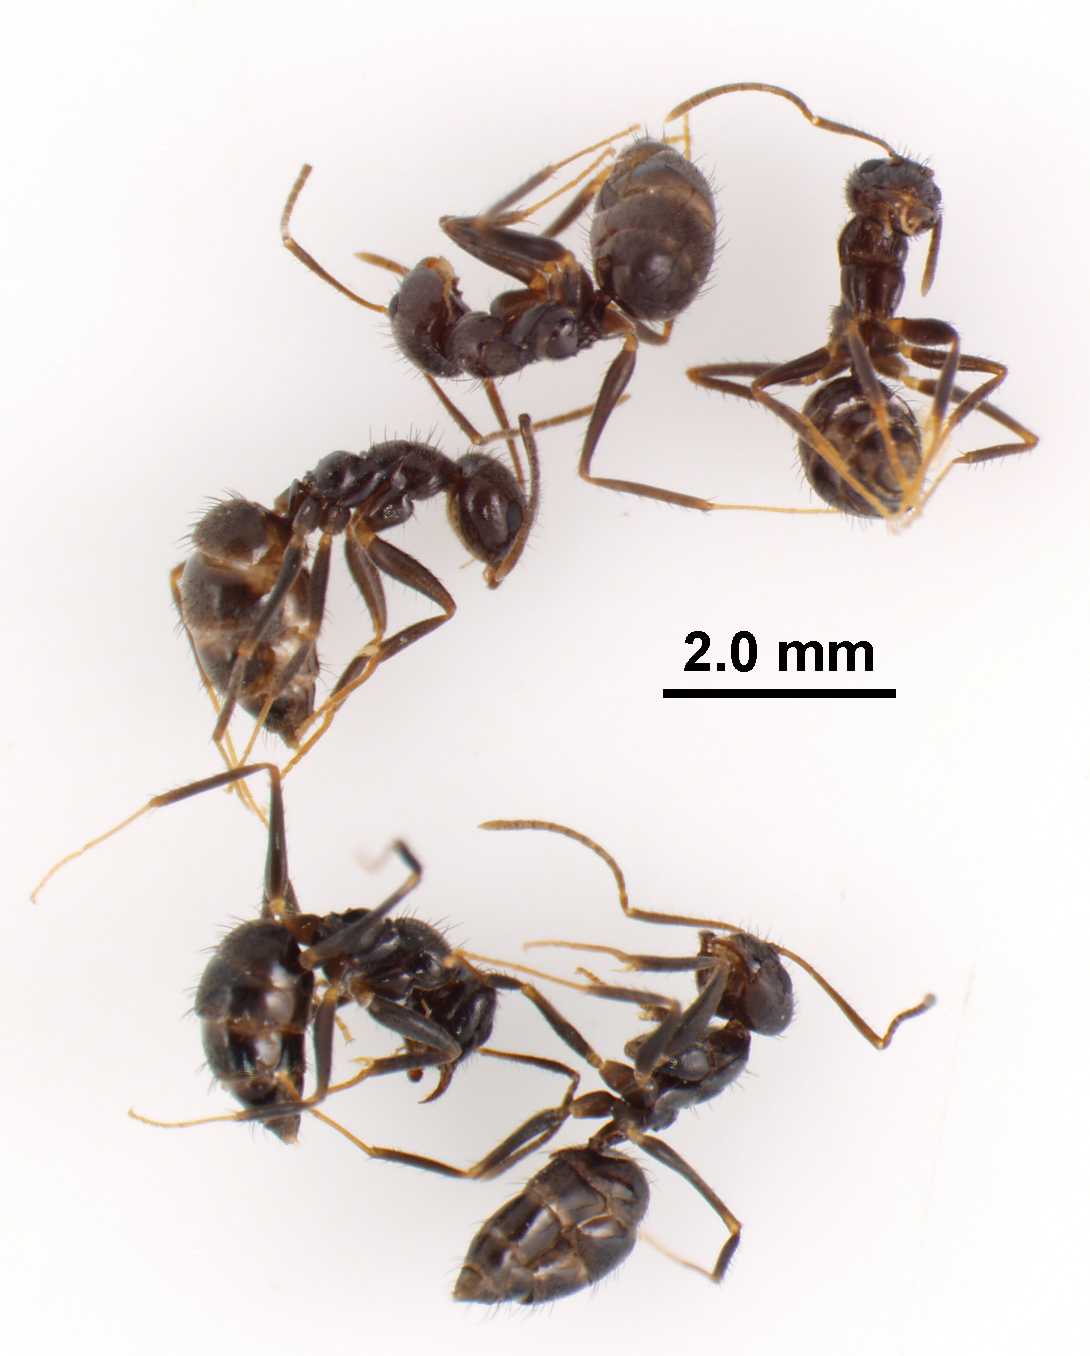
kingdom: Animalia
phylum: Arthropoda
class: Insecta
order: Hymenoptera
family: Formicidae
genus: Paratrechina
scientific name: Paratrechina bourbonica
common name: Ant
